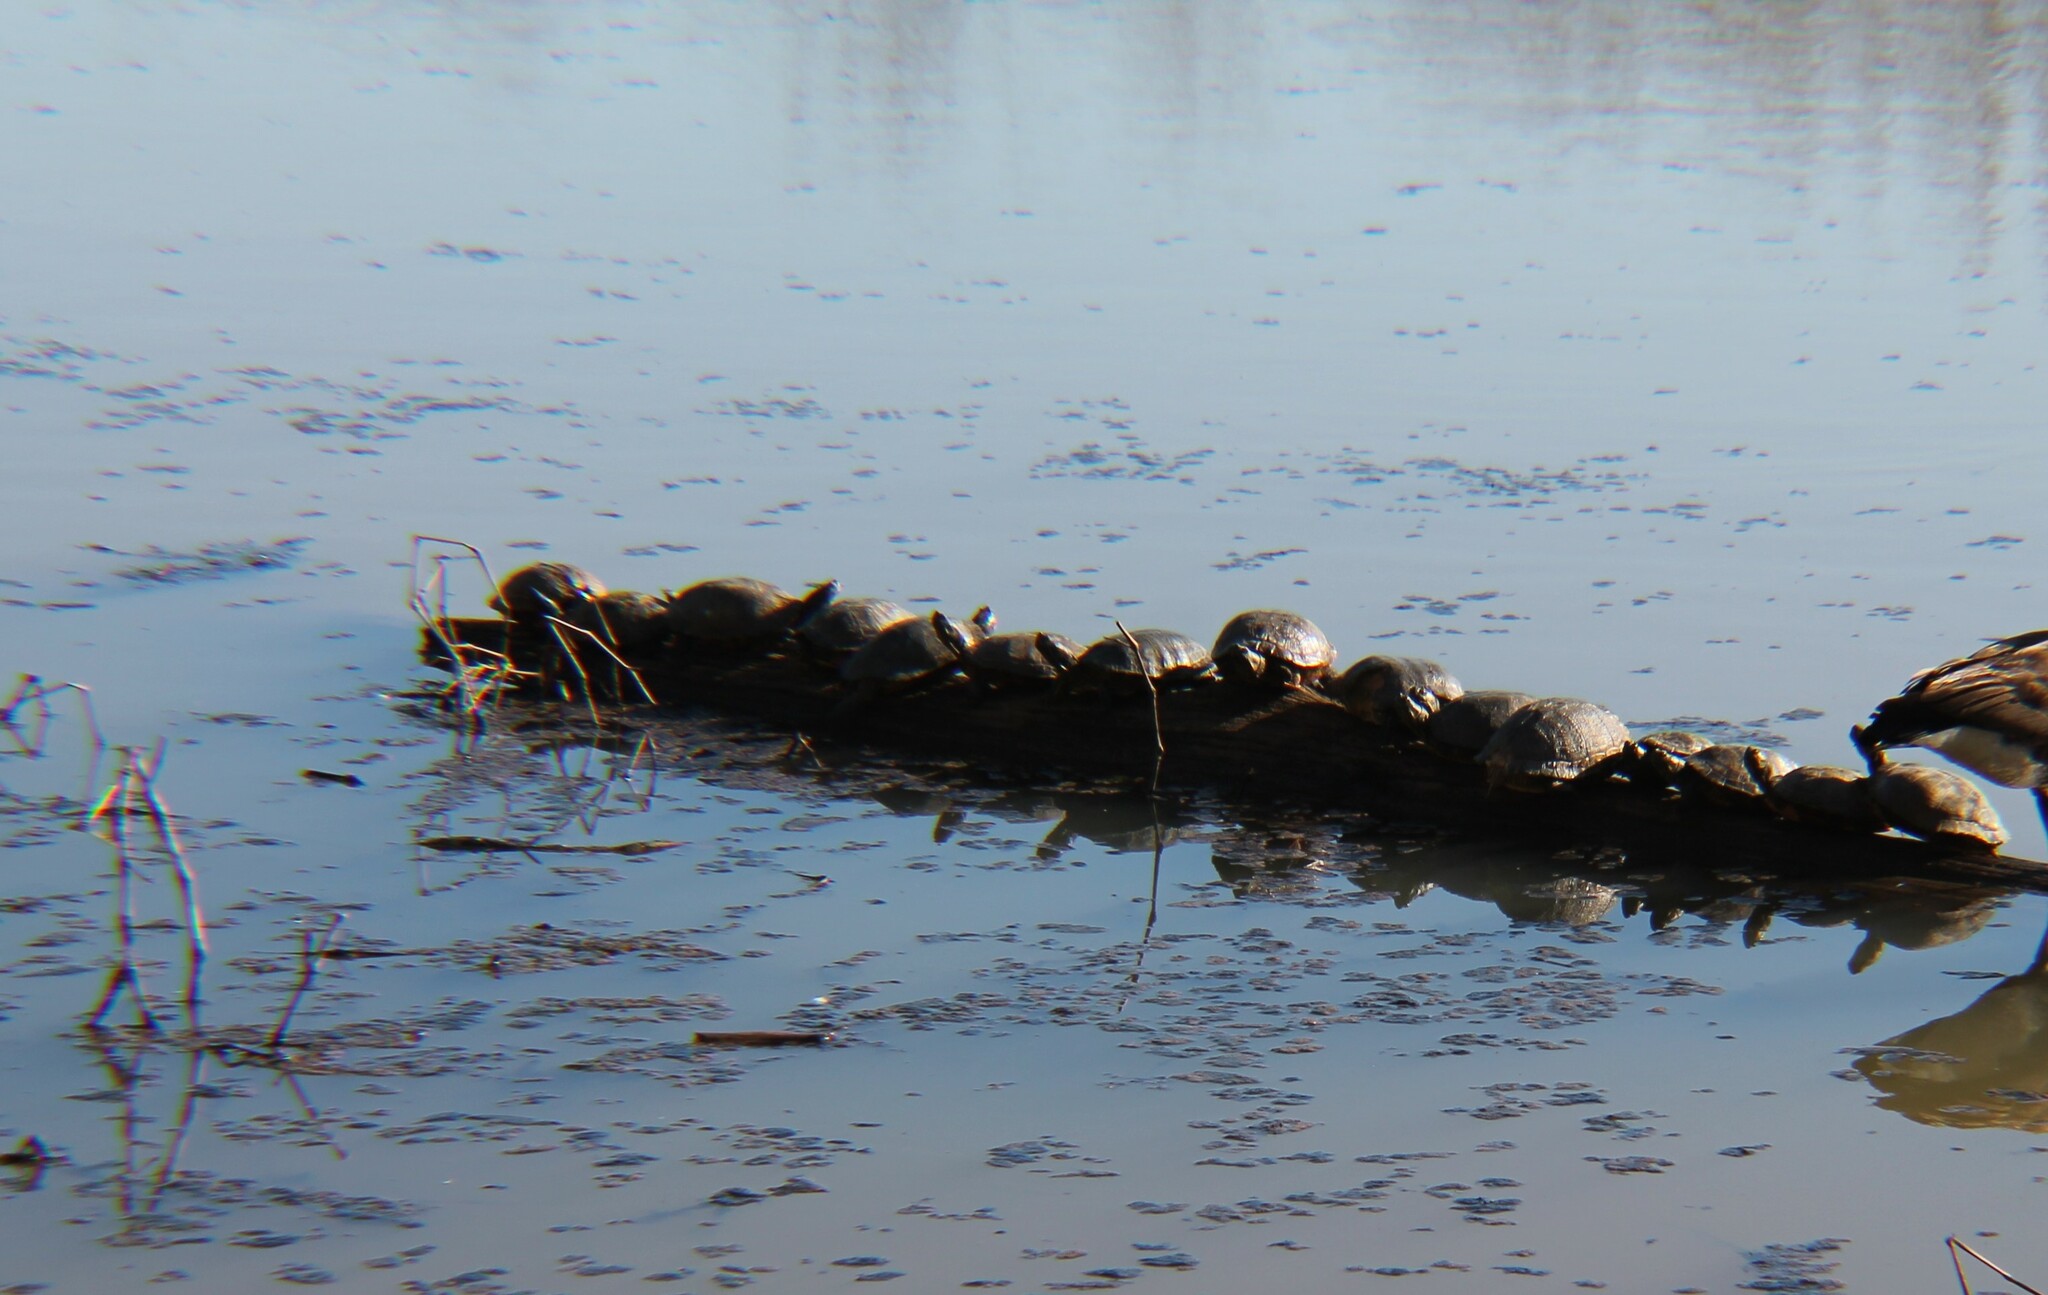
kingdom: Animalia
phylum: Chordata
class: Testudines
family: Emydidae
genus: Trachemys
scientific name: Trachemys scripta
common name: Slider
